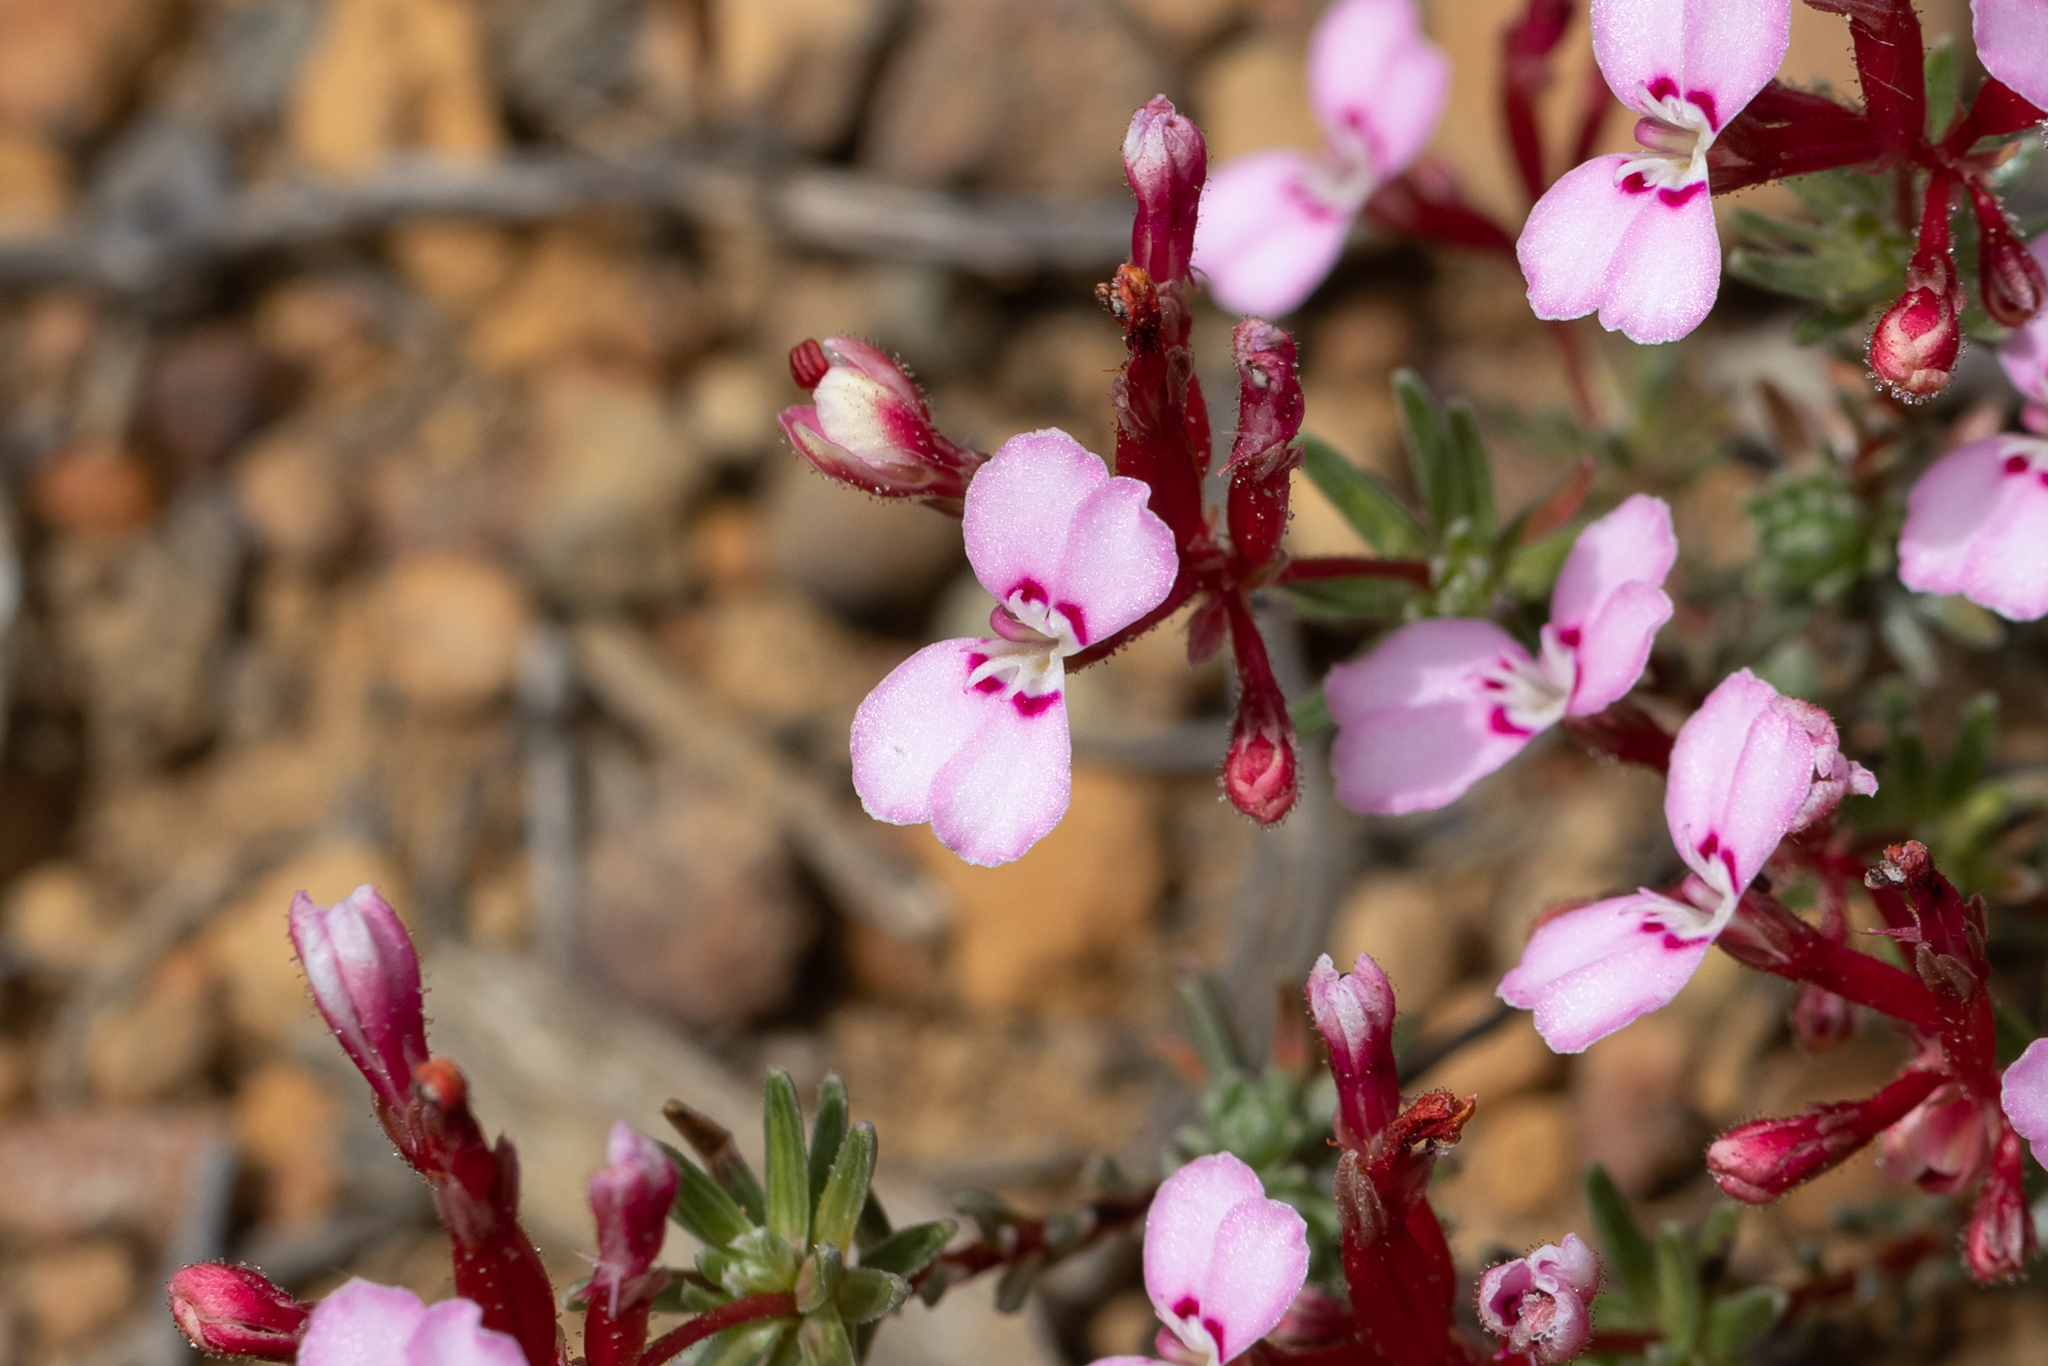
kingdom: Plantae
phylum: Tracheophyta
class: Magnoliopsida
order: Asterales
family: Stylidiaceae
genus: Stylidium
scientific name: Stylidium adpressum
